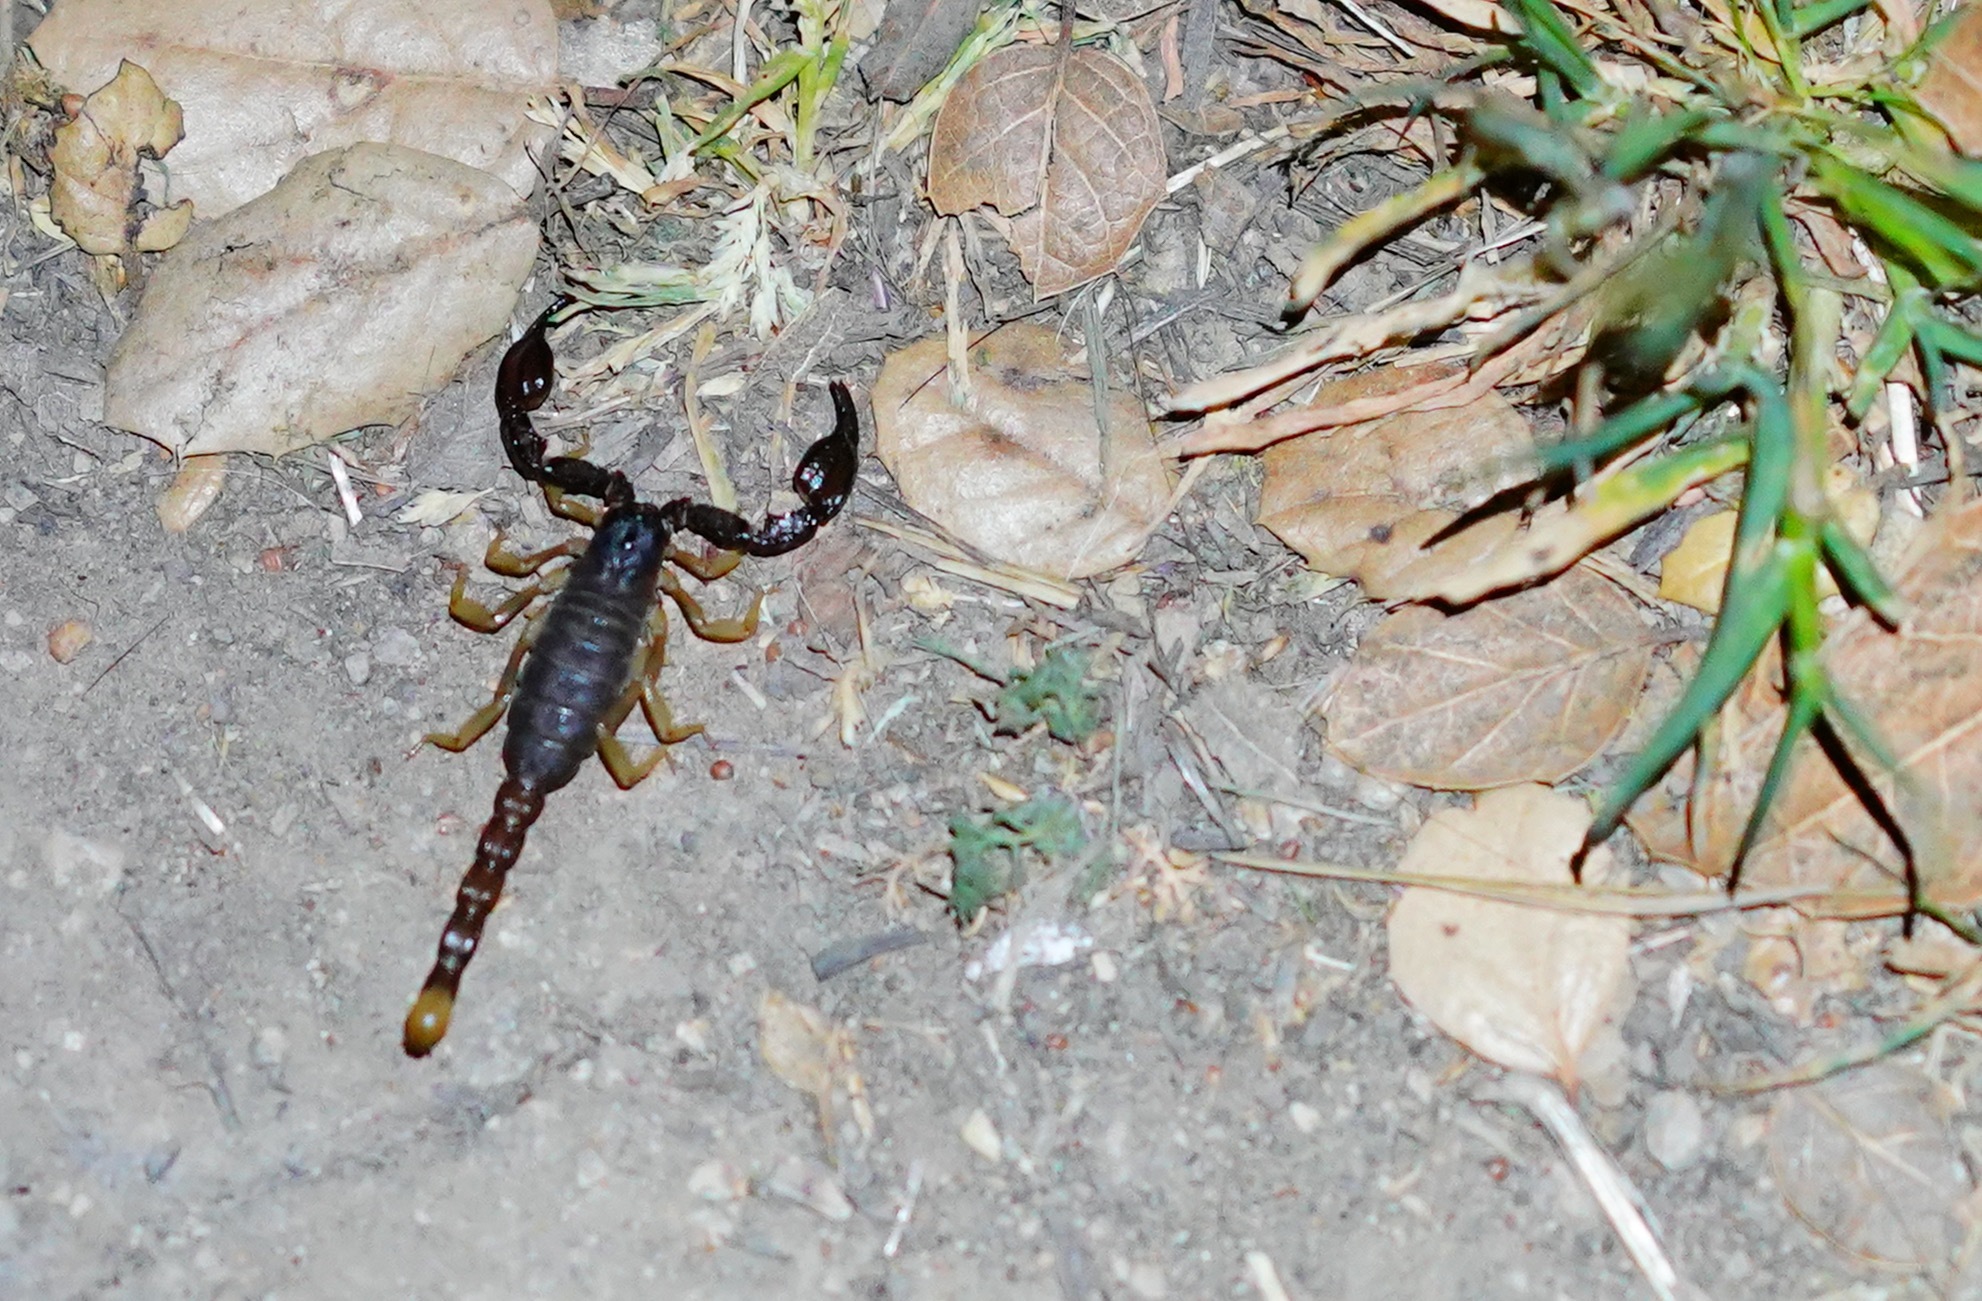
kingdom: Animalia
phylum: Arthropoda
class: Arachnida
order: Scorpiones
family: Chactidae
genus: Uroctonus
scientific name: Uroctonus mordax
